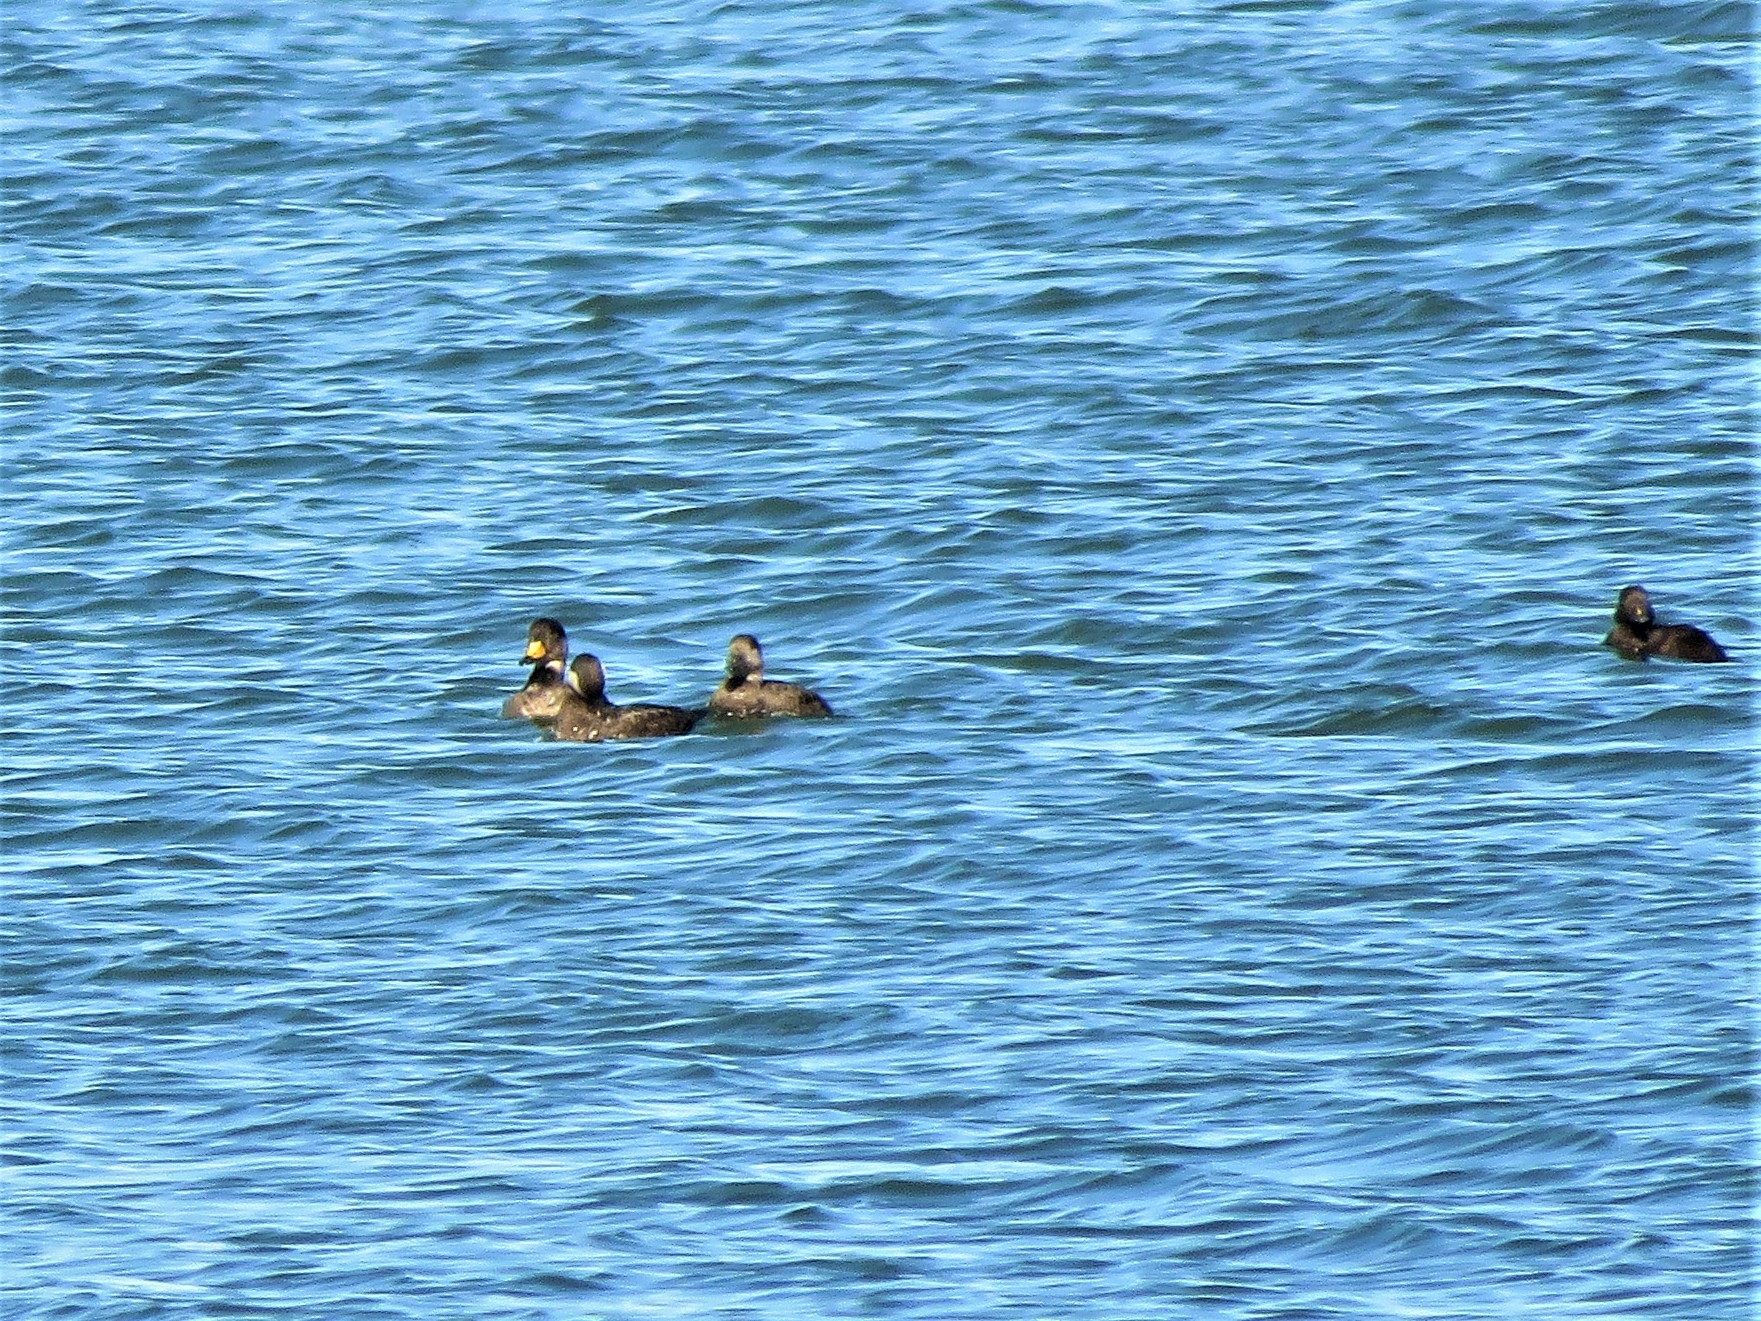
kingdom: Animalia
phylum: Chordata
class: Aves
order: Anseriformes
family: Anatidae
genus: Melanitta
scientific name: Melanitta americana
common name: Black scoter
